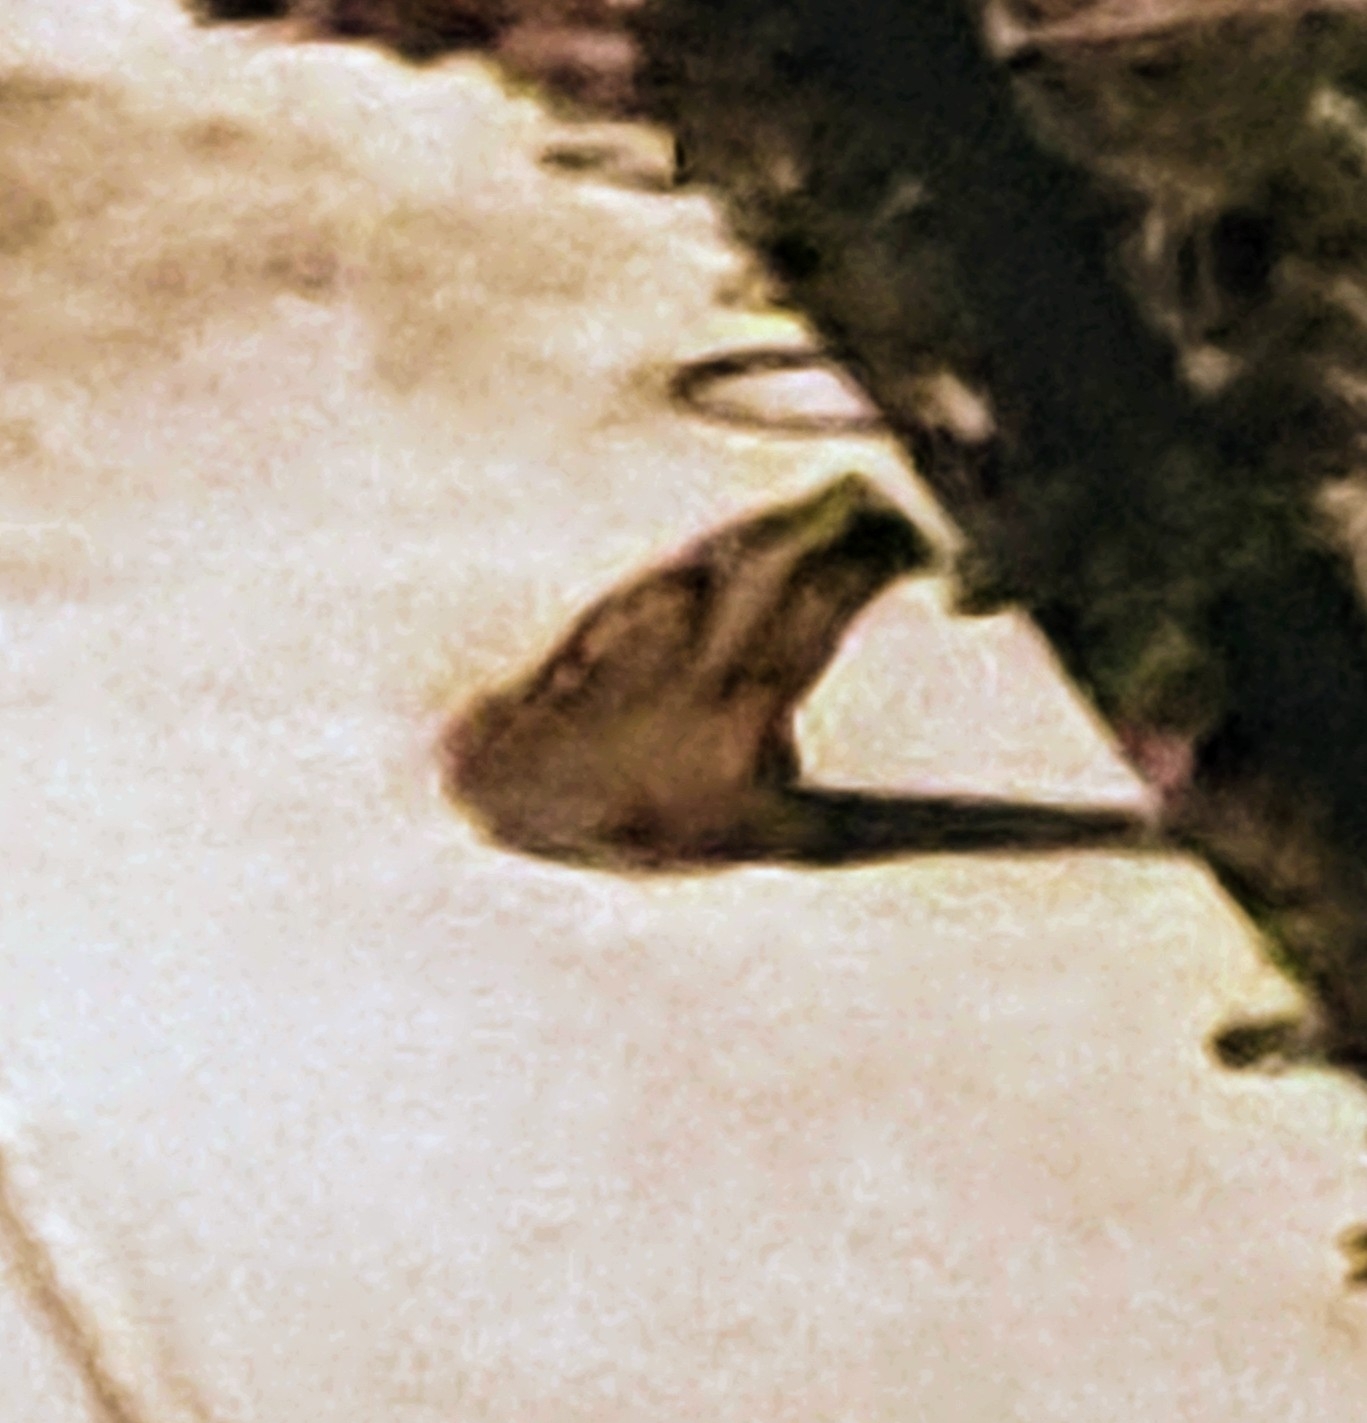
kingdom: Animalia
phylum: Chordata
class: Amphibia
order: Anura
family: Bufonidae
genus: Rhinella
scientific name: Rhinella marina
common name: Cane toad
